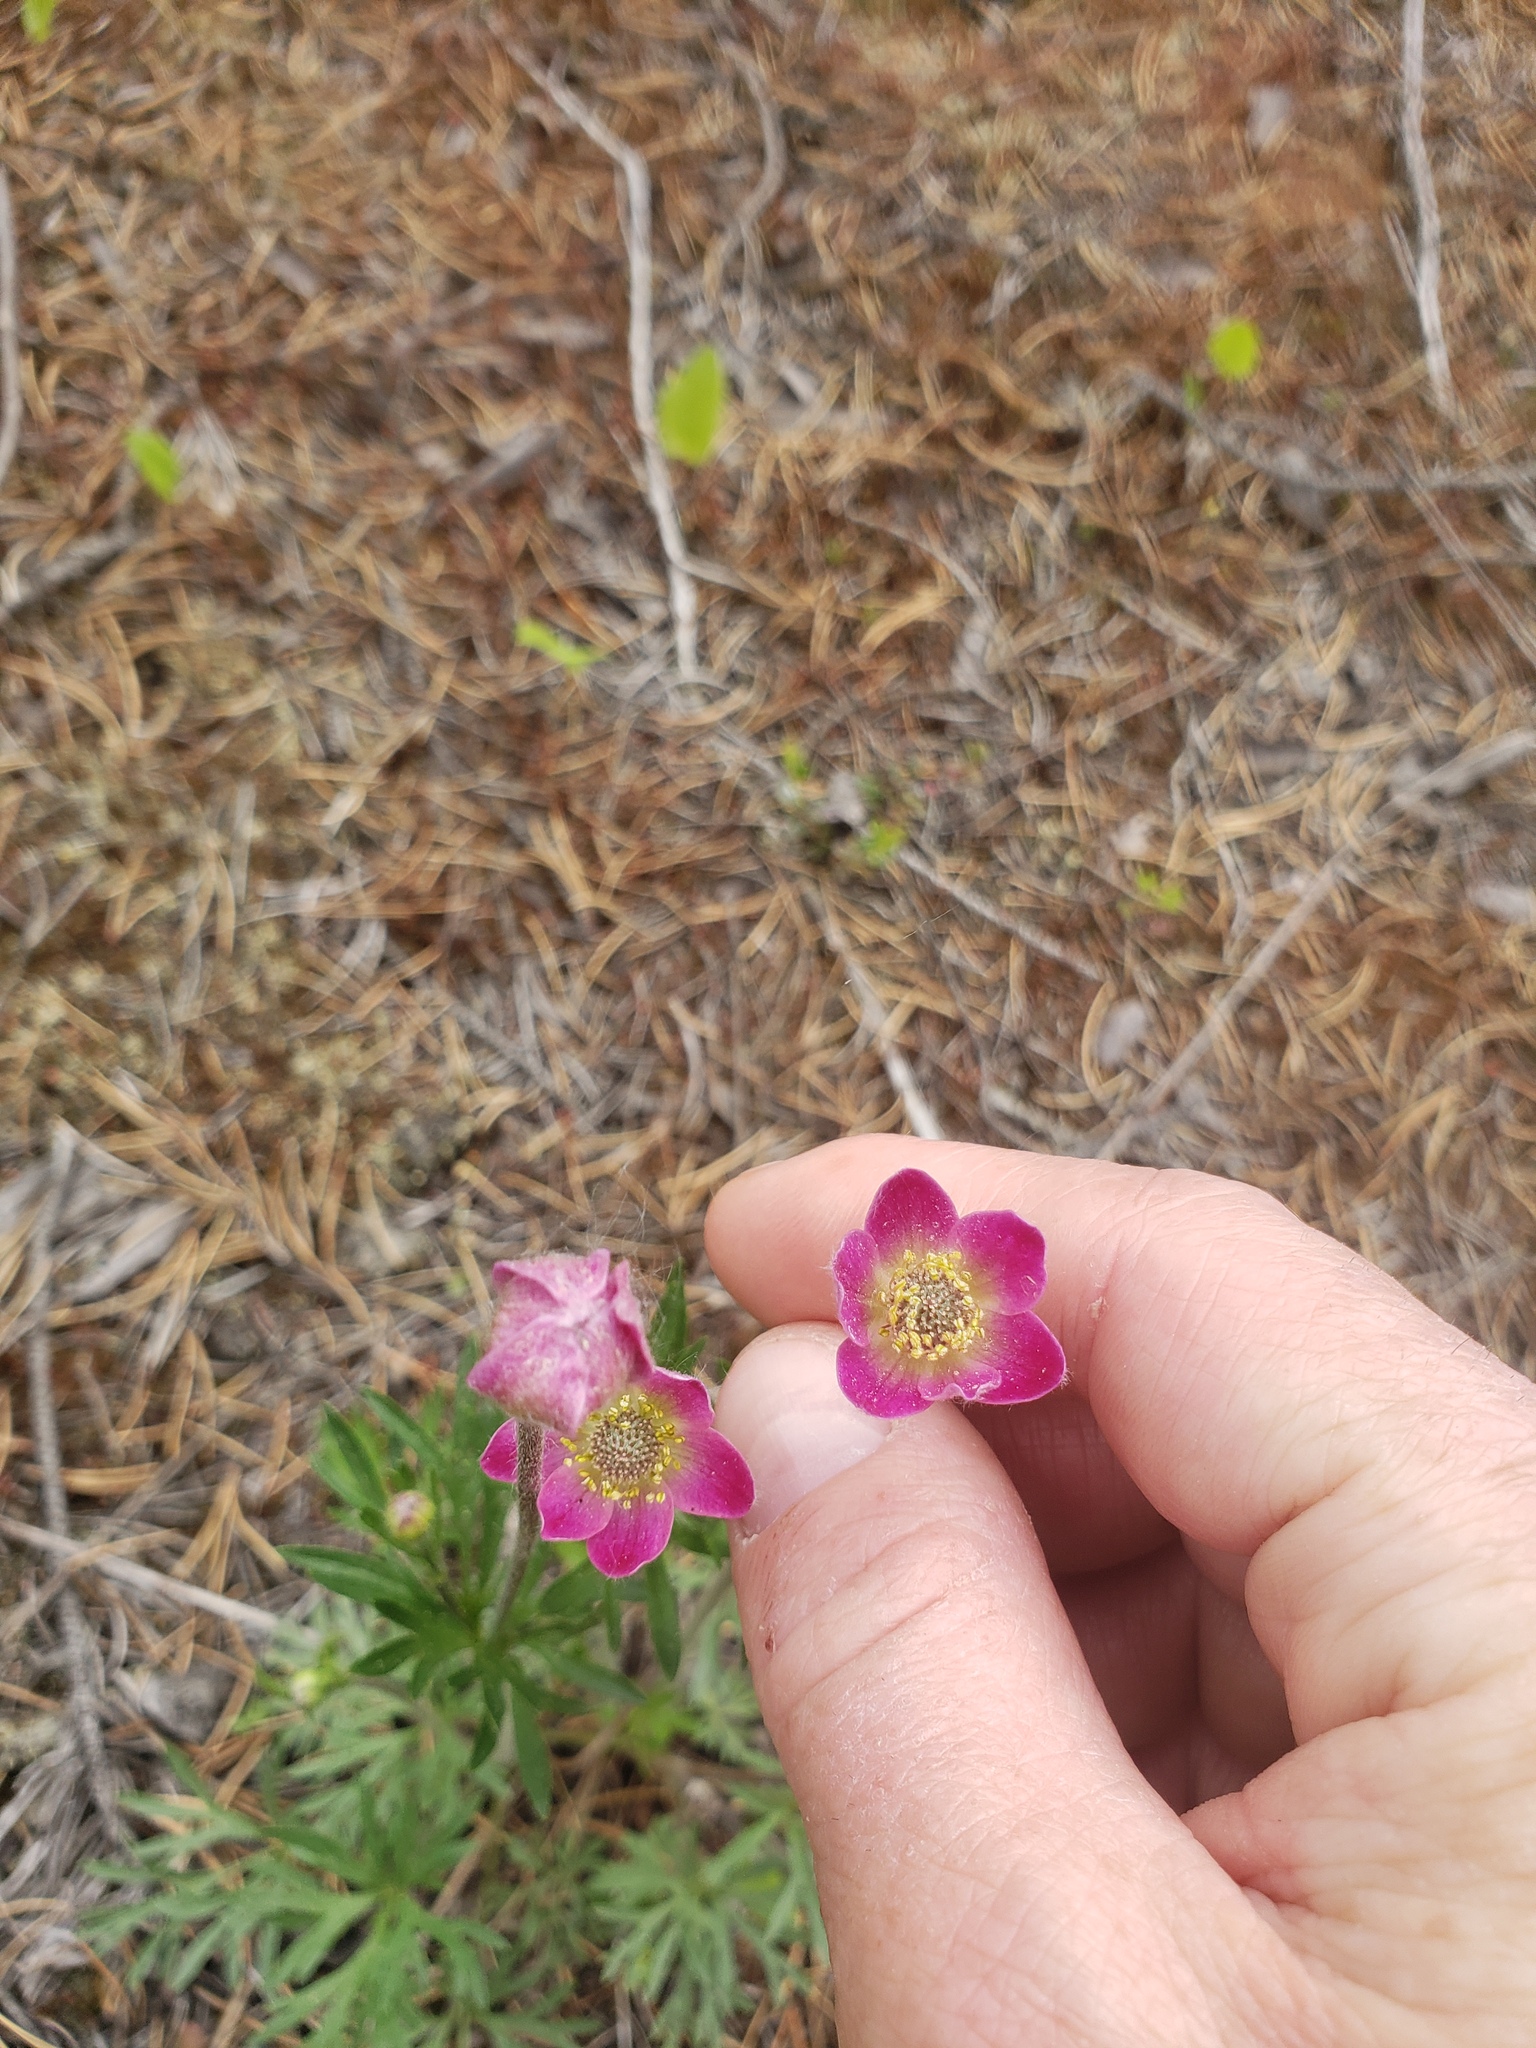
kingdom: Plantae
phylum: Tracheophyta
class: Magnoliopsida
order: Ranunculales
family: Ranunculaceae
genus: Anemone
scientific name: Anemone multifida
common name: Bird's-foot anemone
